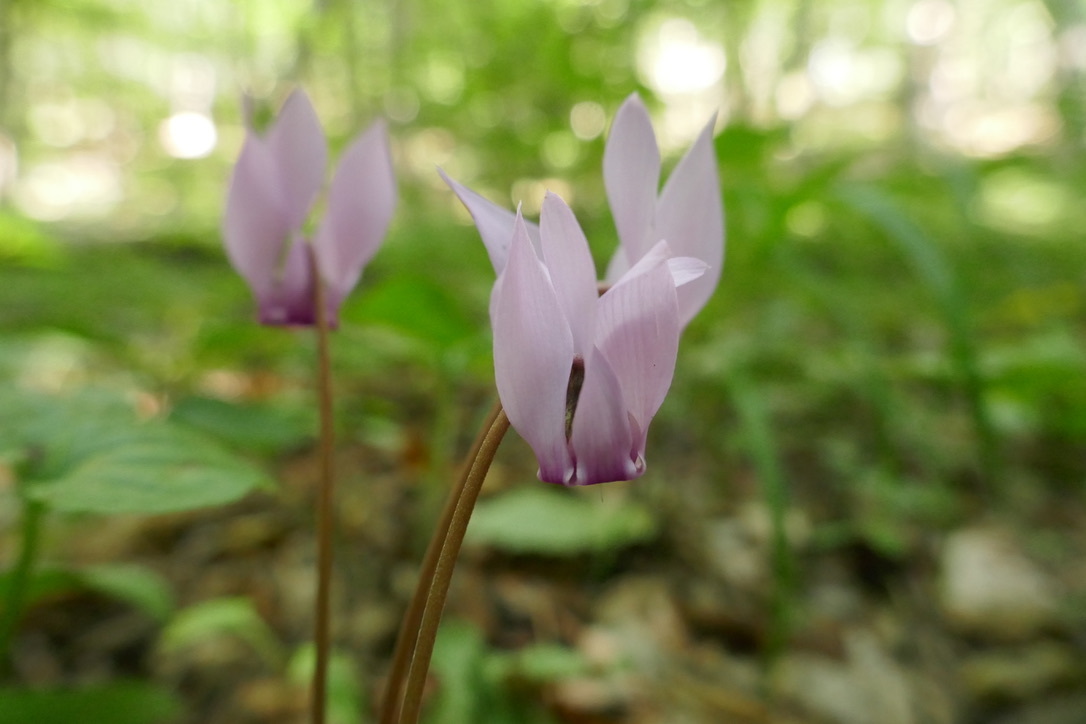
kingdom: Plantae
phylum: Tracheophyta
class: Magnoliopsida
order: Ericales
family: Primulaceae
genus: Cyclamen
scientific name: Cyclamen purpurascens
